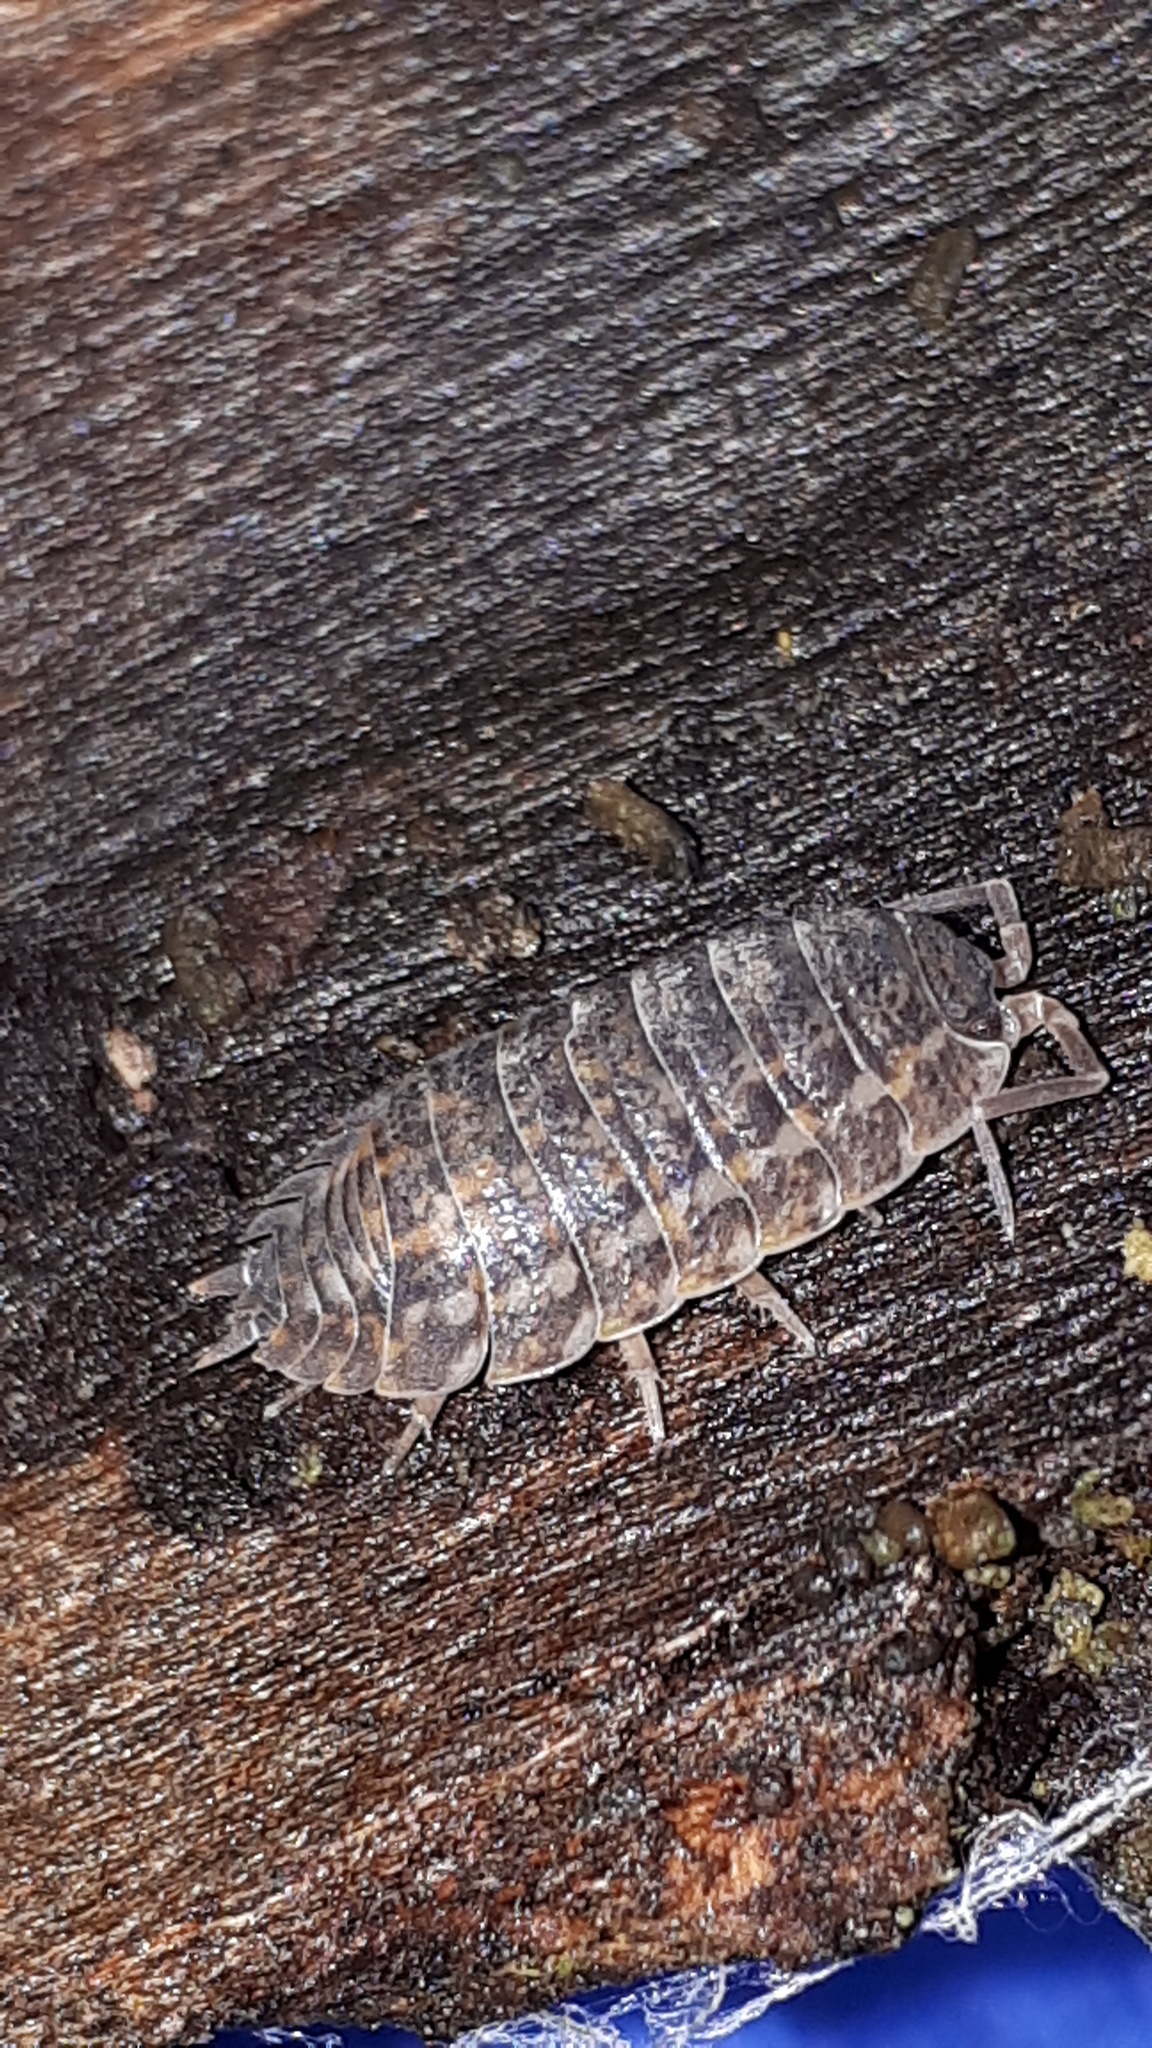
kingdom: Animalia
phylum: Arthropoda
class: Malacostraca
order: Isopoda
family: Trachelipodidae
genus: Trachelipus
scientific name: Trachelipus rathkii
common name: Isopod
